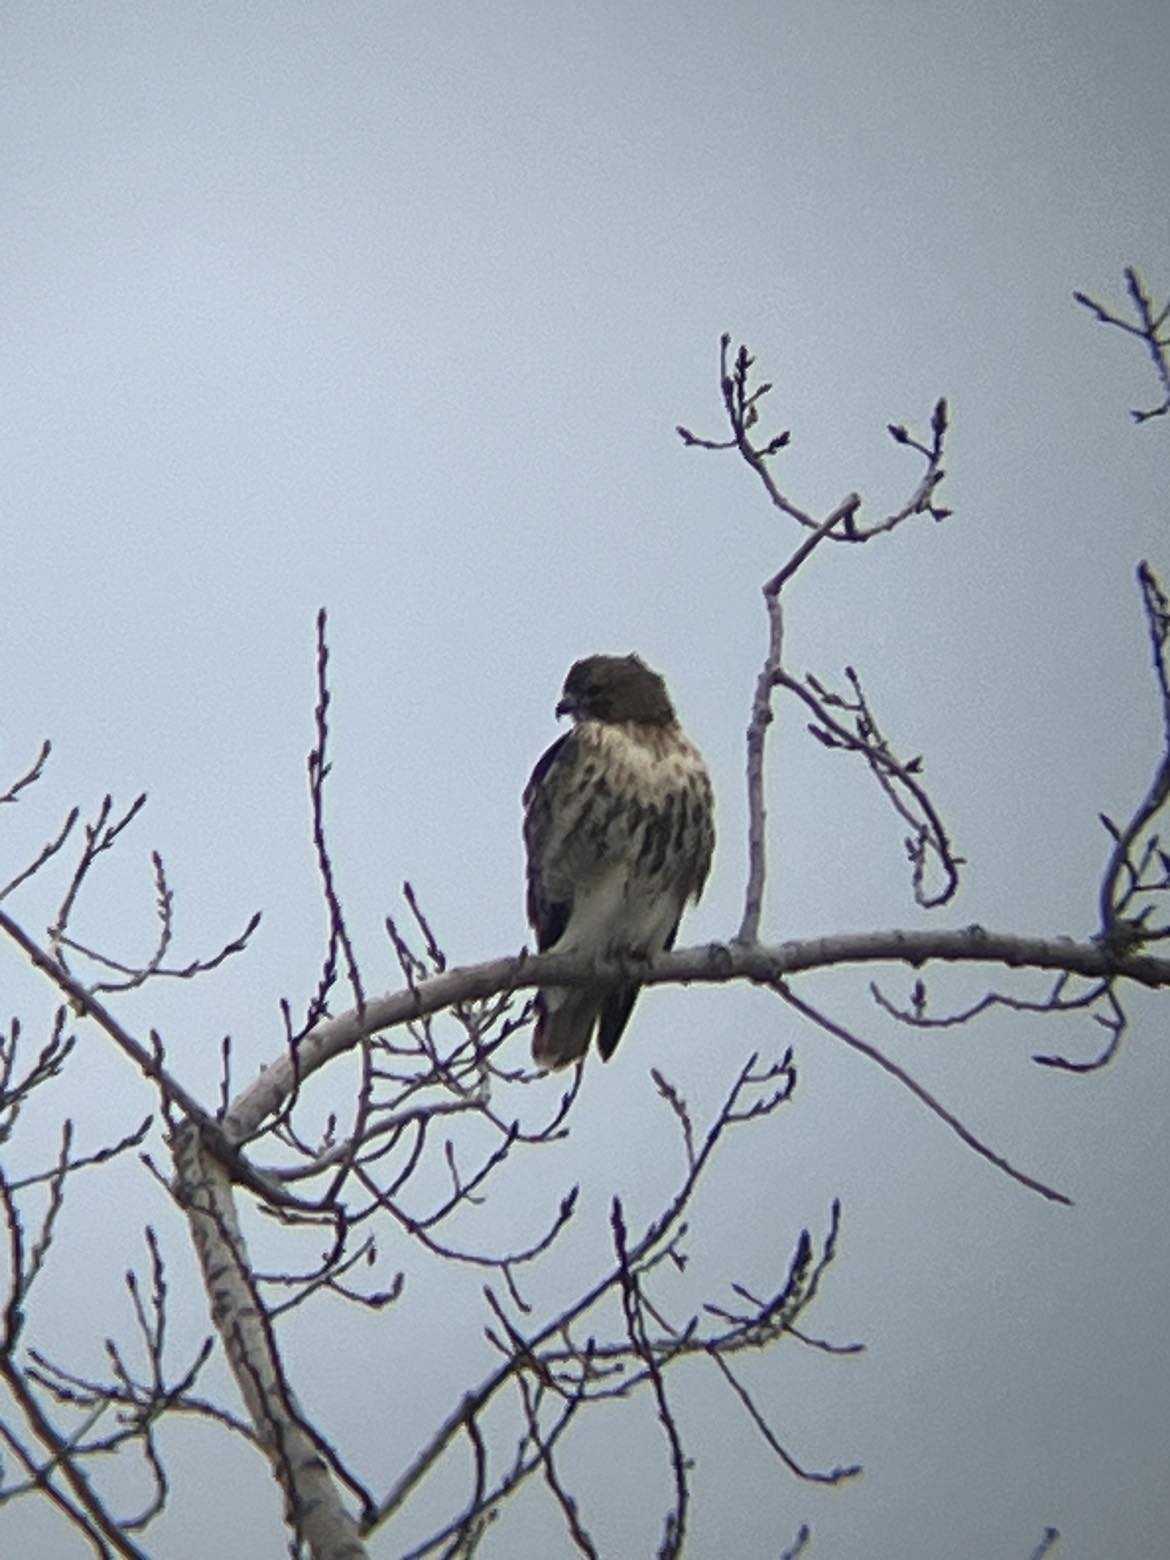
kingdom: Animalia
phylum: Chordata
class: Aves
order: Accipitriformes
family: Accipitridae
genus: Buteo
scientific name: Buteo jamaicensis
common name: Red-tailed hawk
